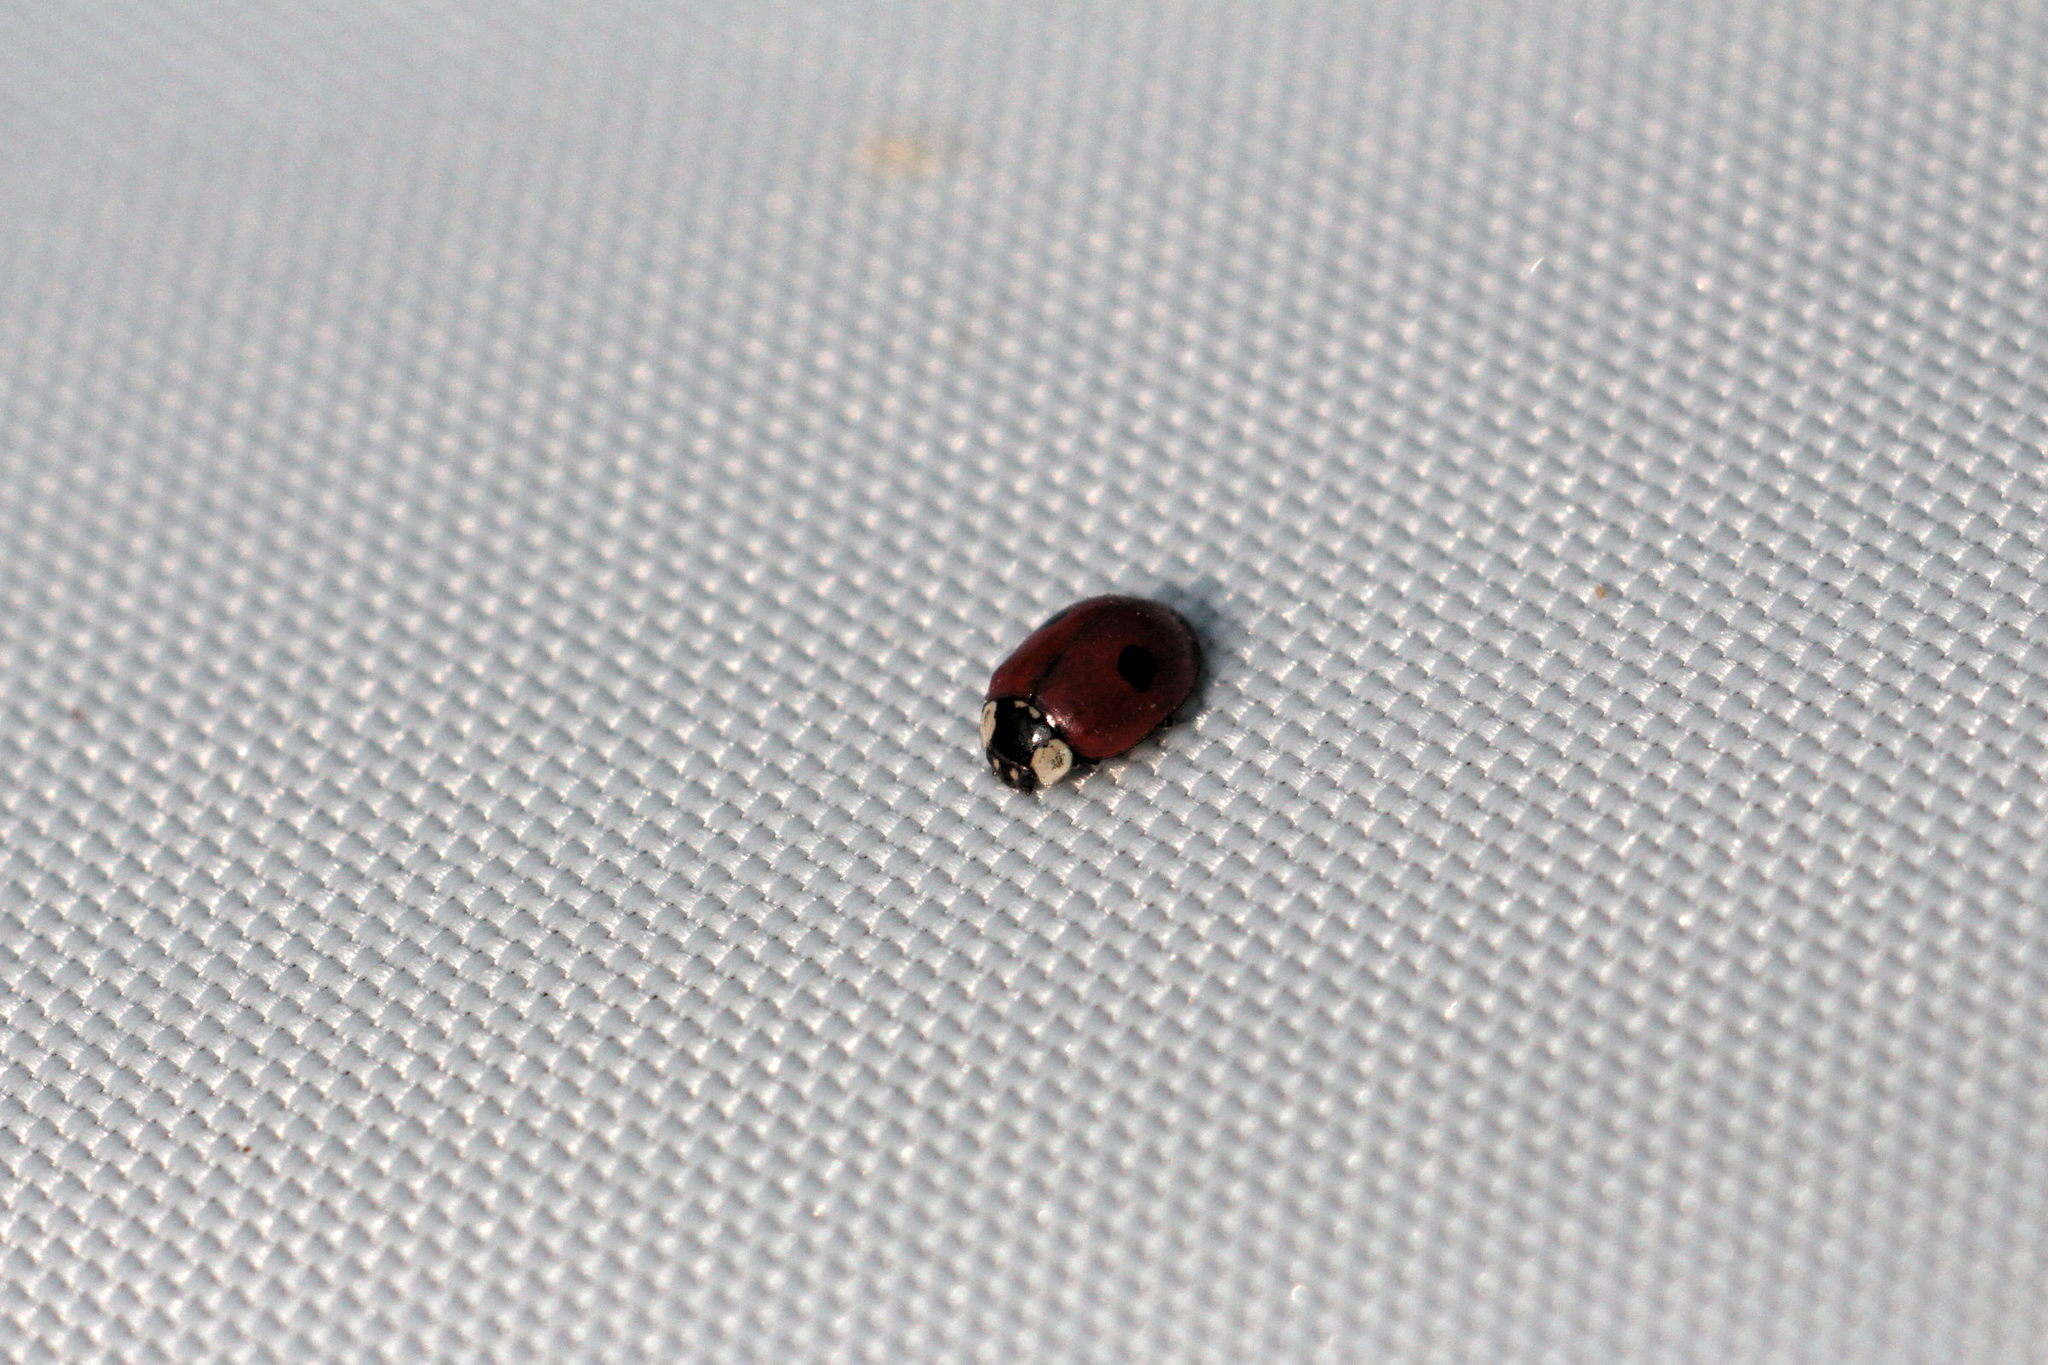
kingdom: Animalia
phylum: Arthropoda
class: Insecta
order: Coleoptera
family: Coccinellidae
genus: Adalia
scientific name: Adalia bipunctata
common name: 2-spot ladybird
